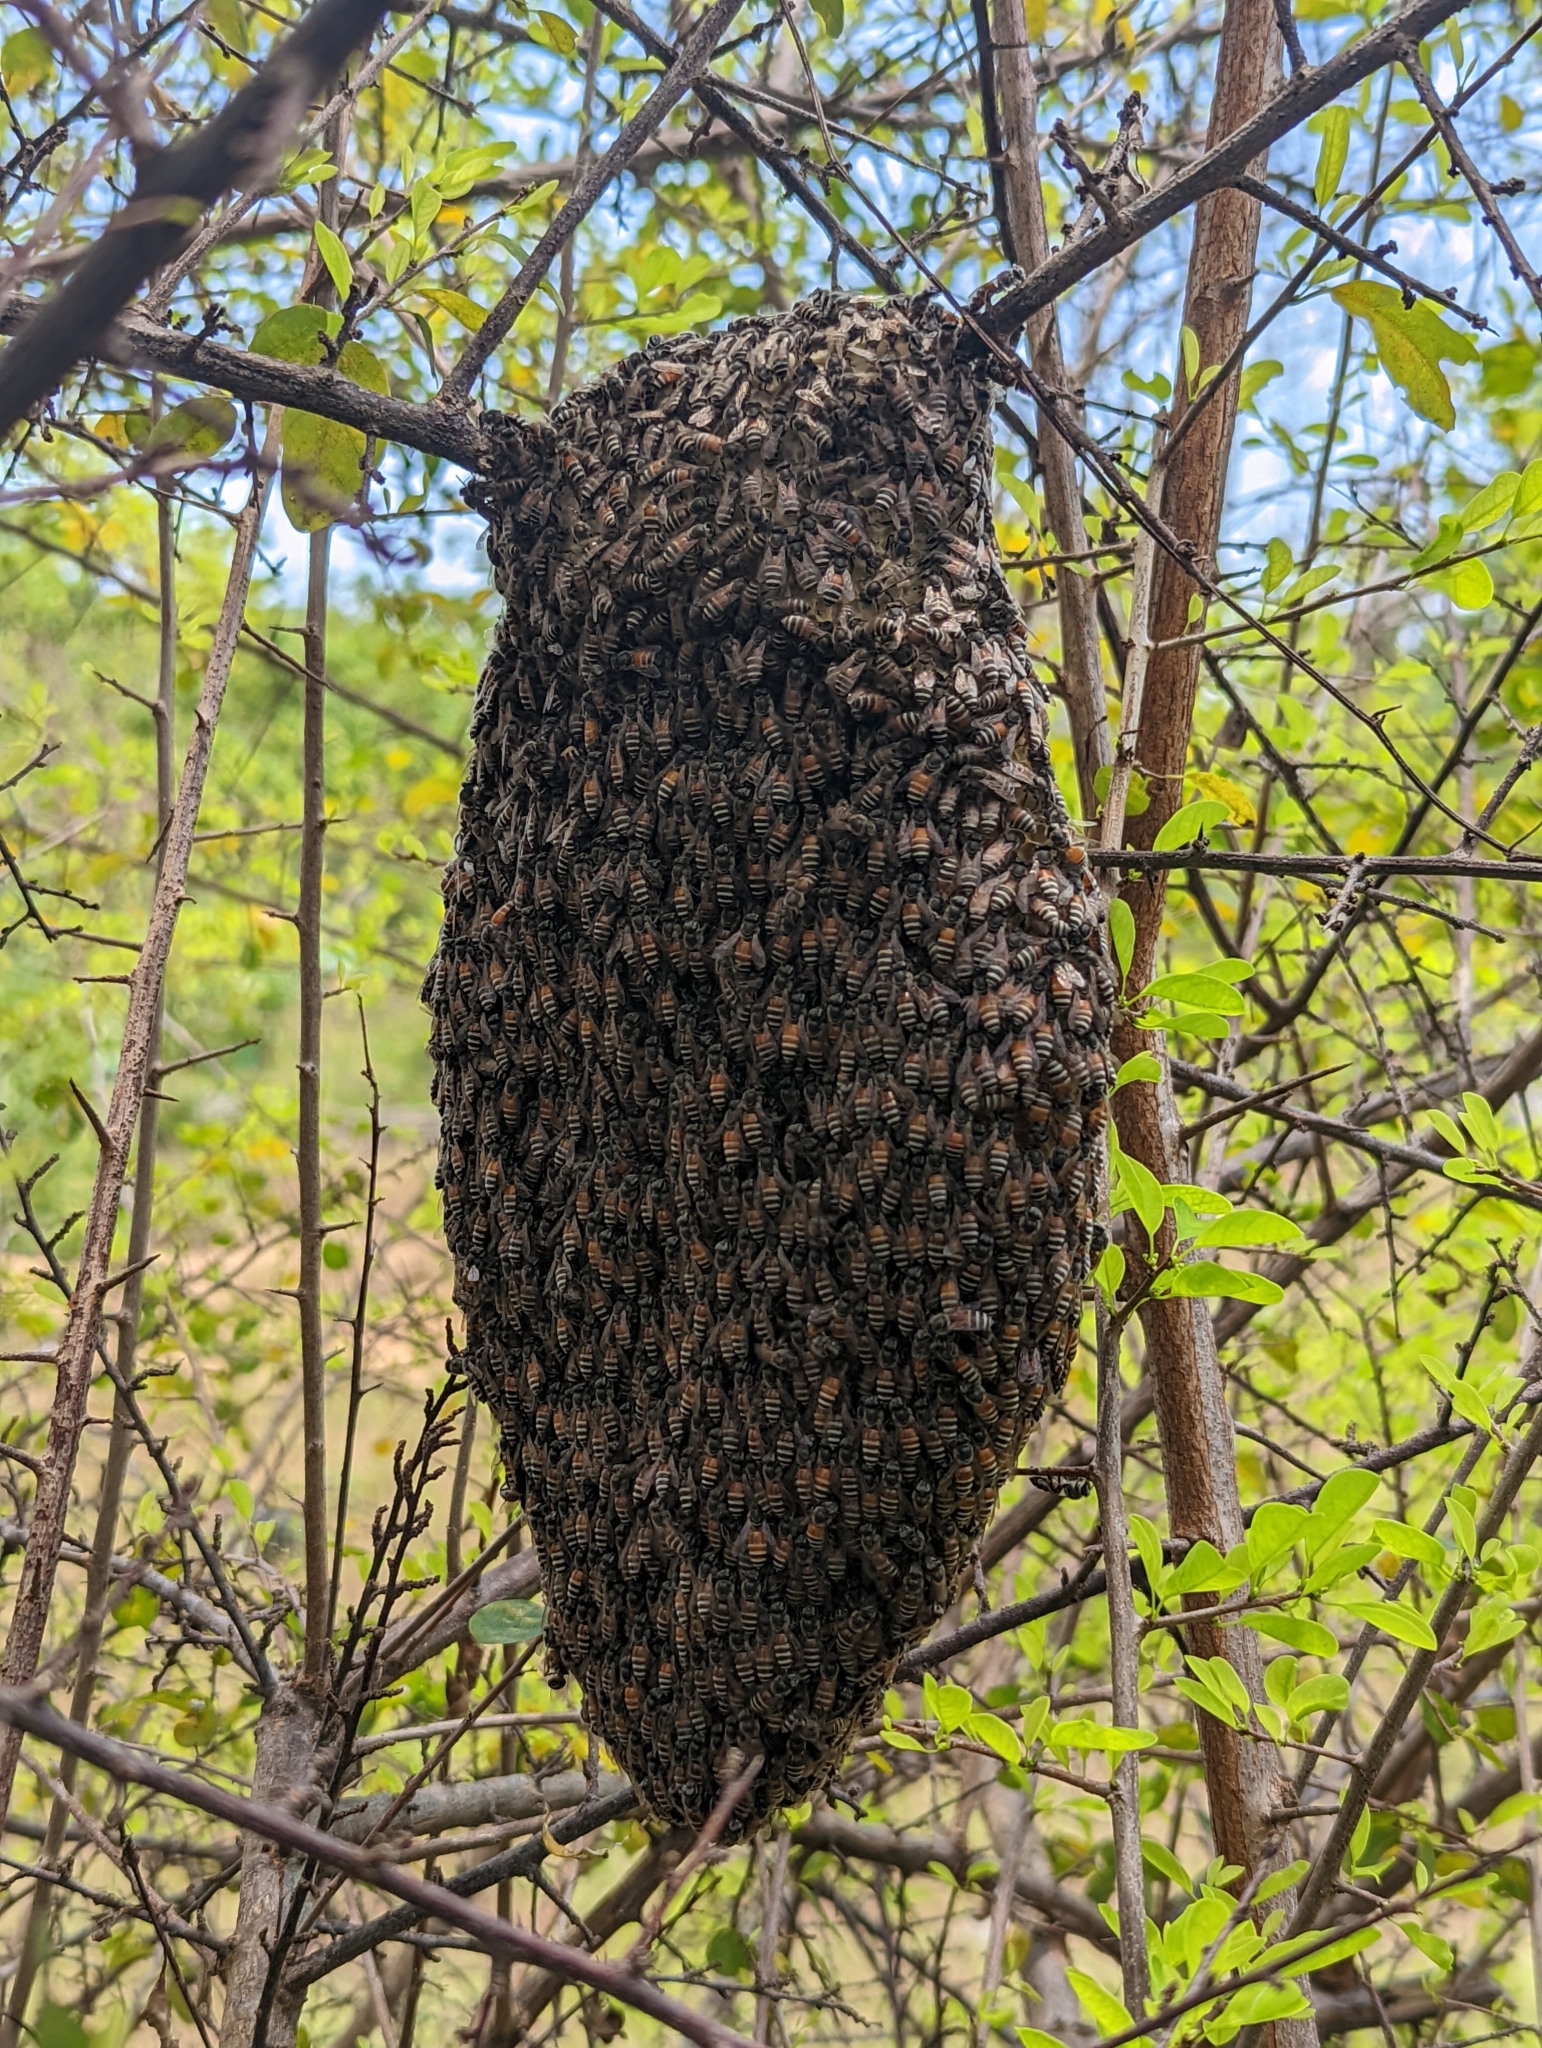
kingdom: Animalia
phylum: Arthropoda
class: Insecta
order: Hymenoptera
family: Apidae
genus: Apis
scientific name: Apis florea
